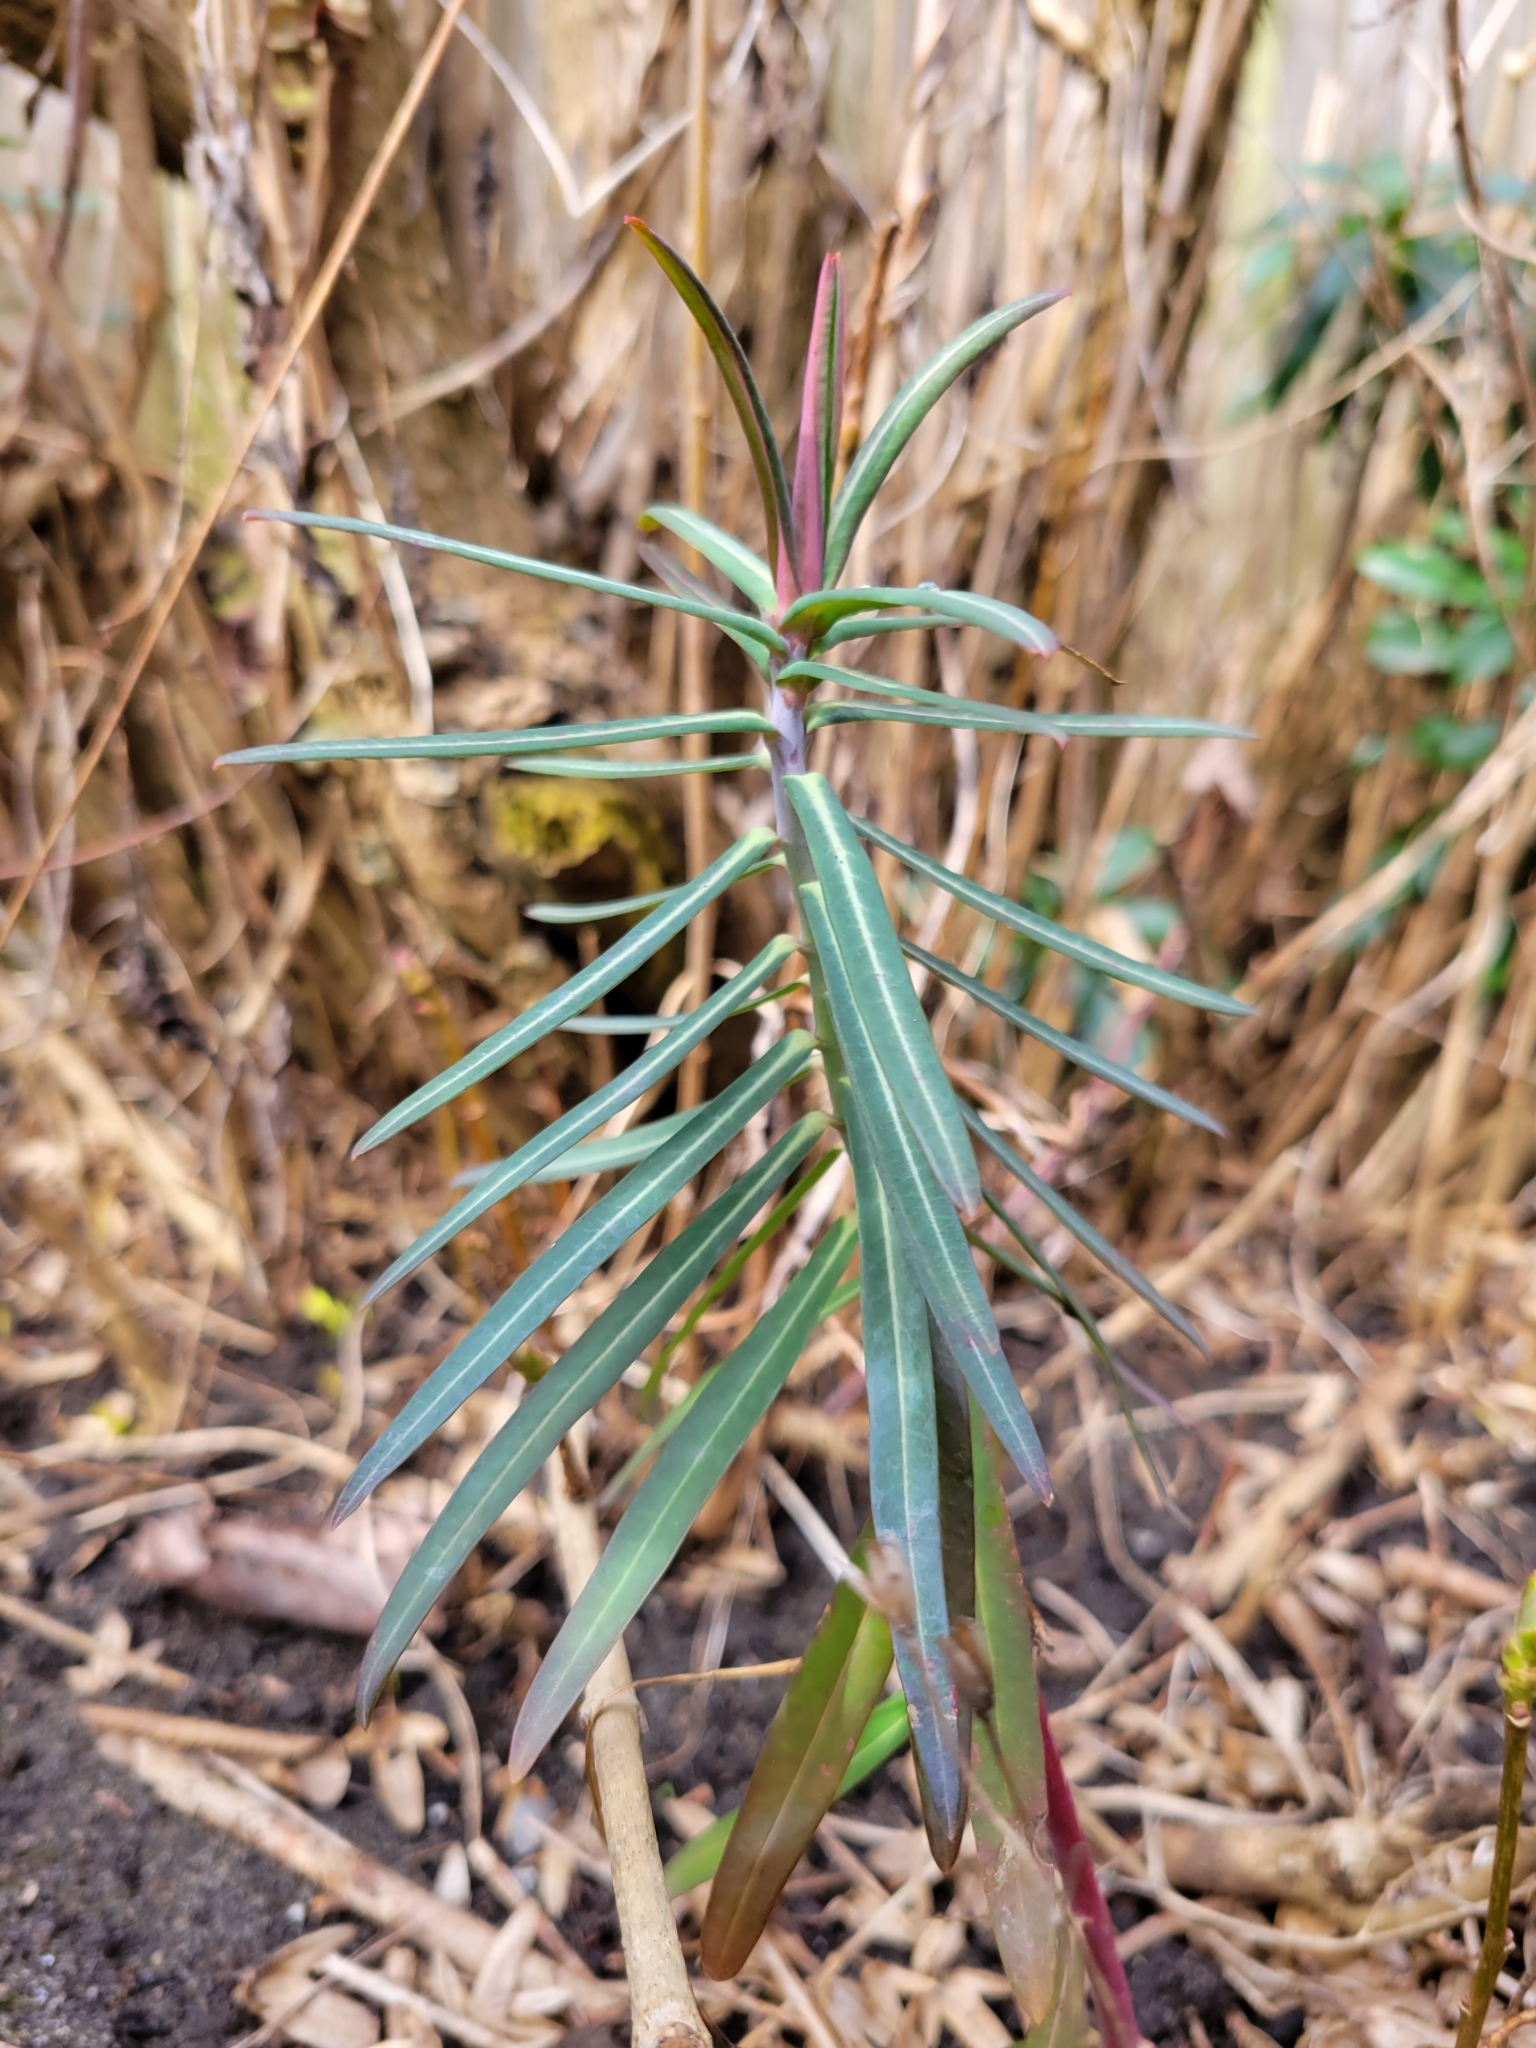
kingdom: Plantae
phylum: Tracheophyta
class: Magnoliopsida
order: Malpighiales
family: Euphorbiaceae
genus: Euphorbia
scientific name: Euphorbia lathyris
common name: Caper spurge
